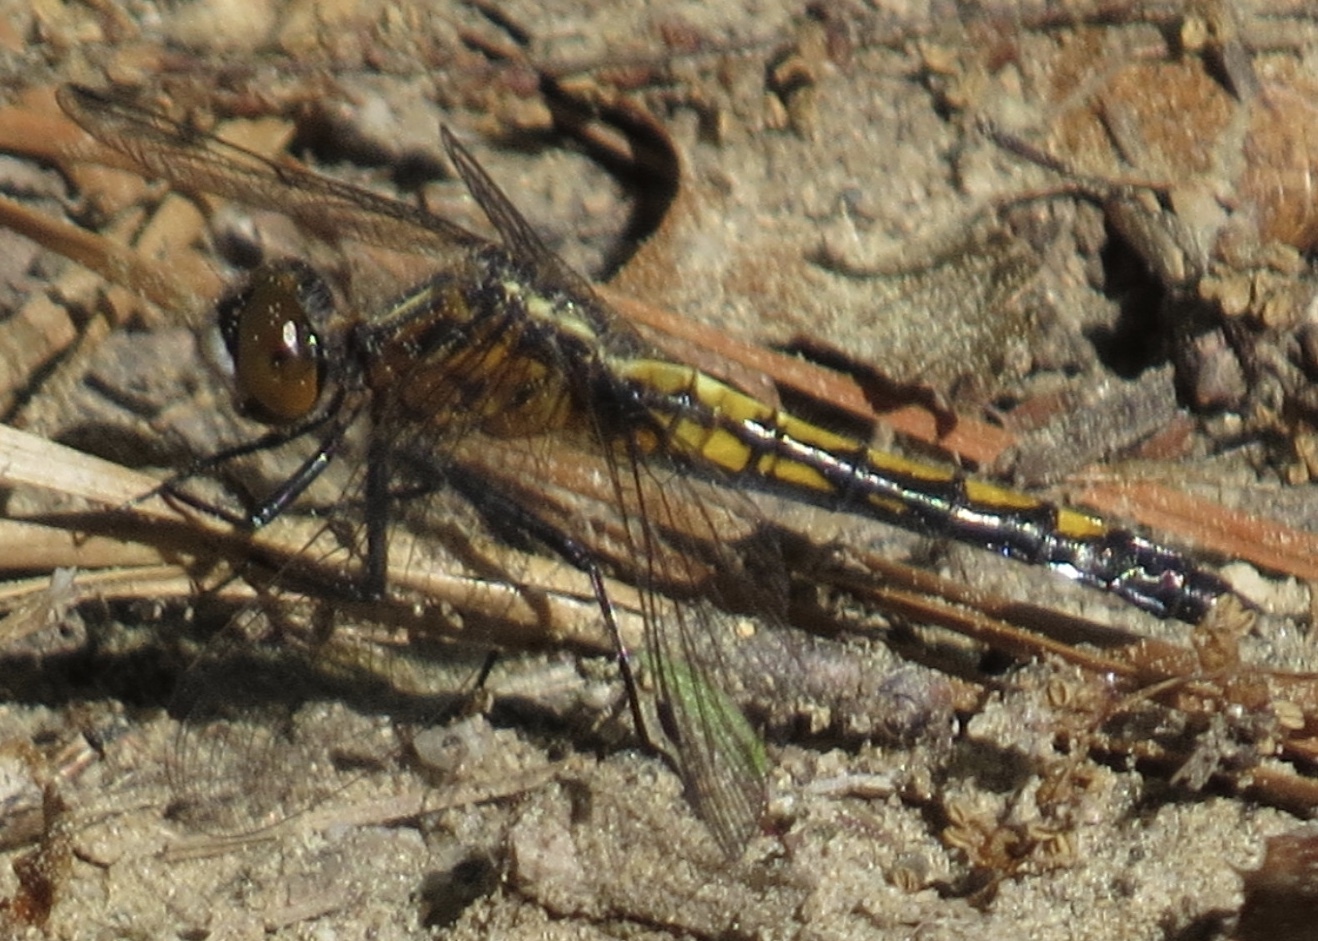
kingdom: Animalia
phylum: Arthropoda
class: Insecta
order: Odonata
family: Libellulidae
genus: Leucorrhinia
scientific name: Leucorrhinia intacta
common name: Dot-tailed whiteface
